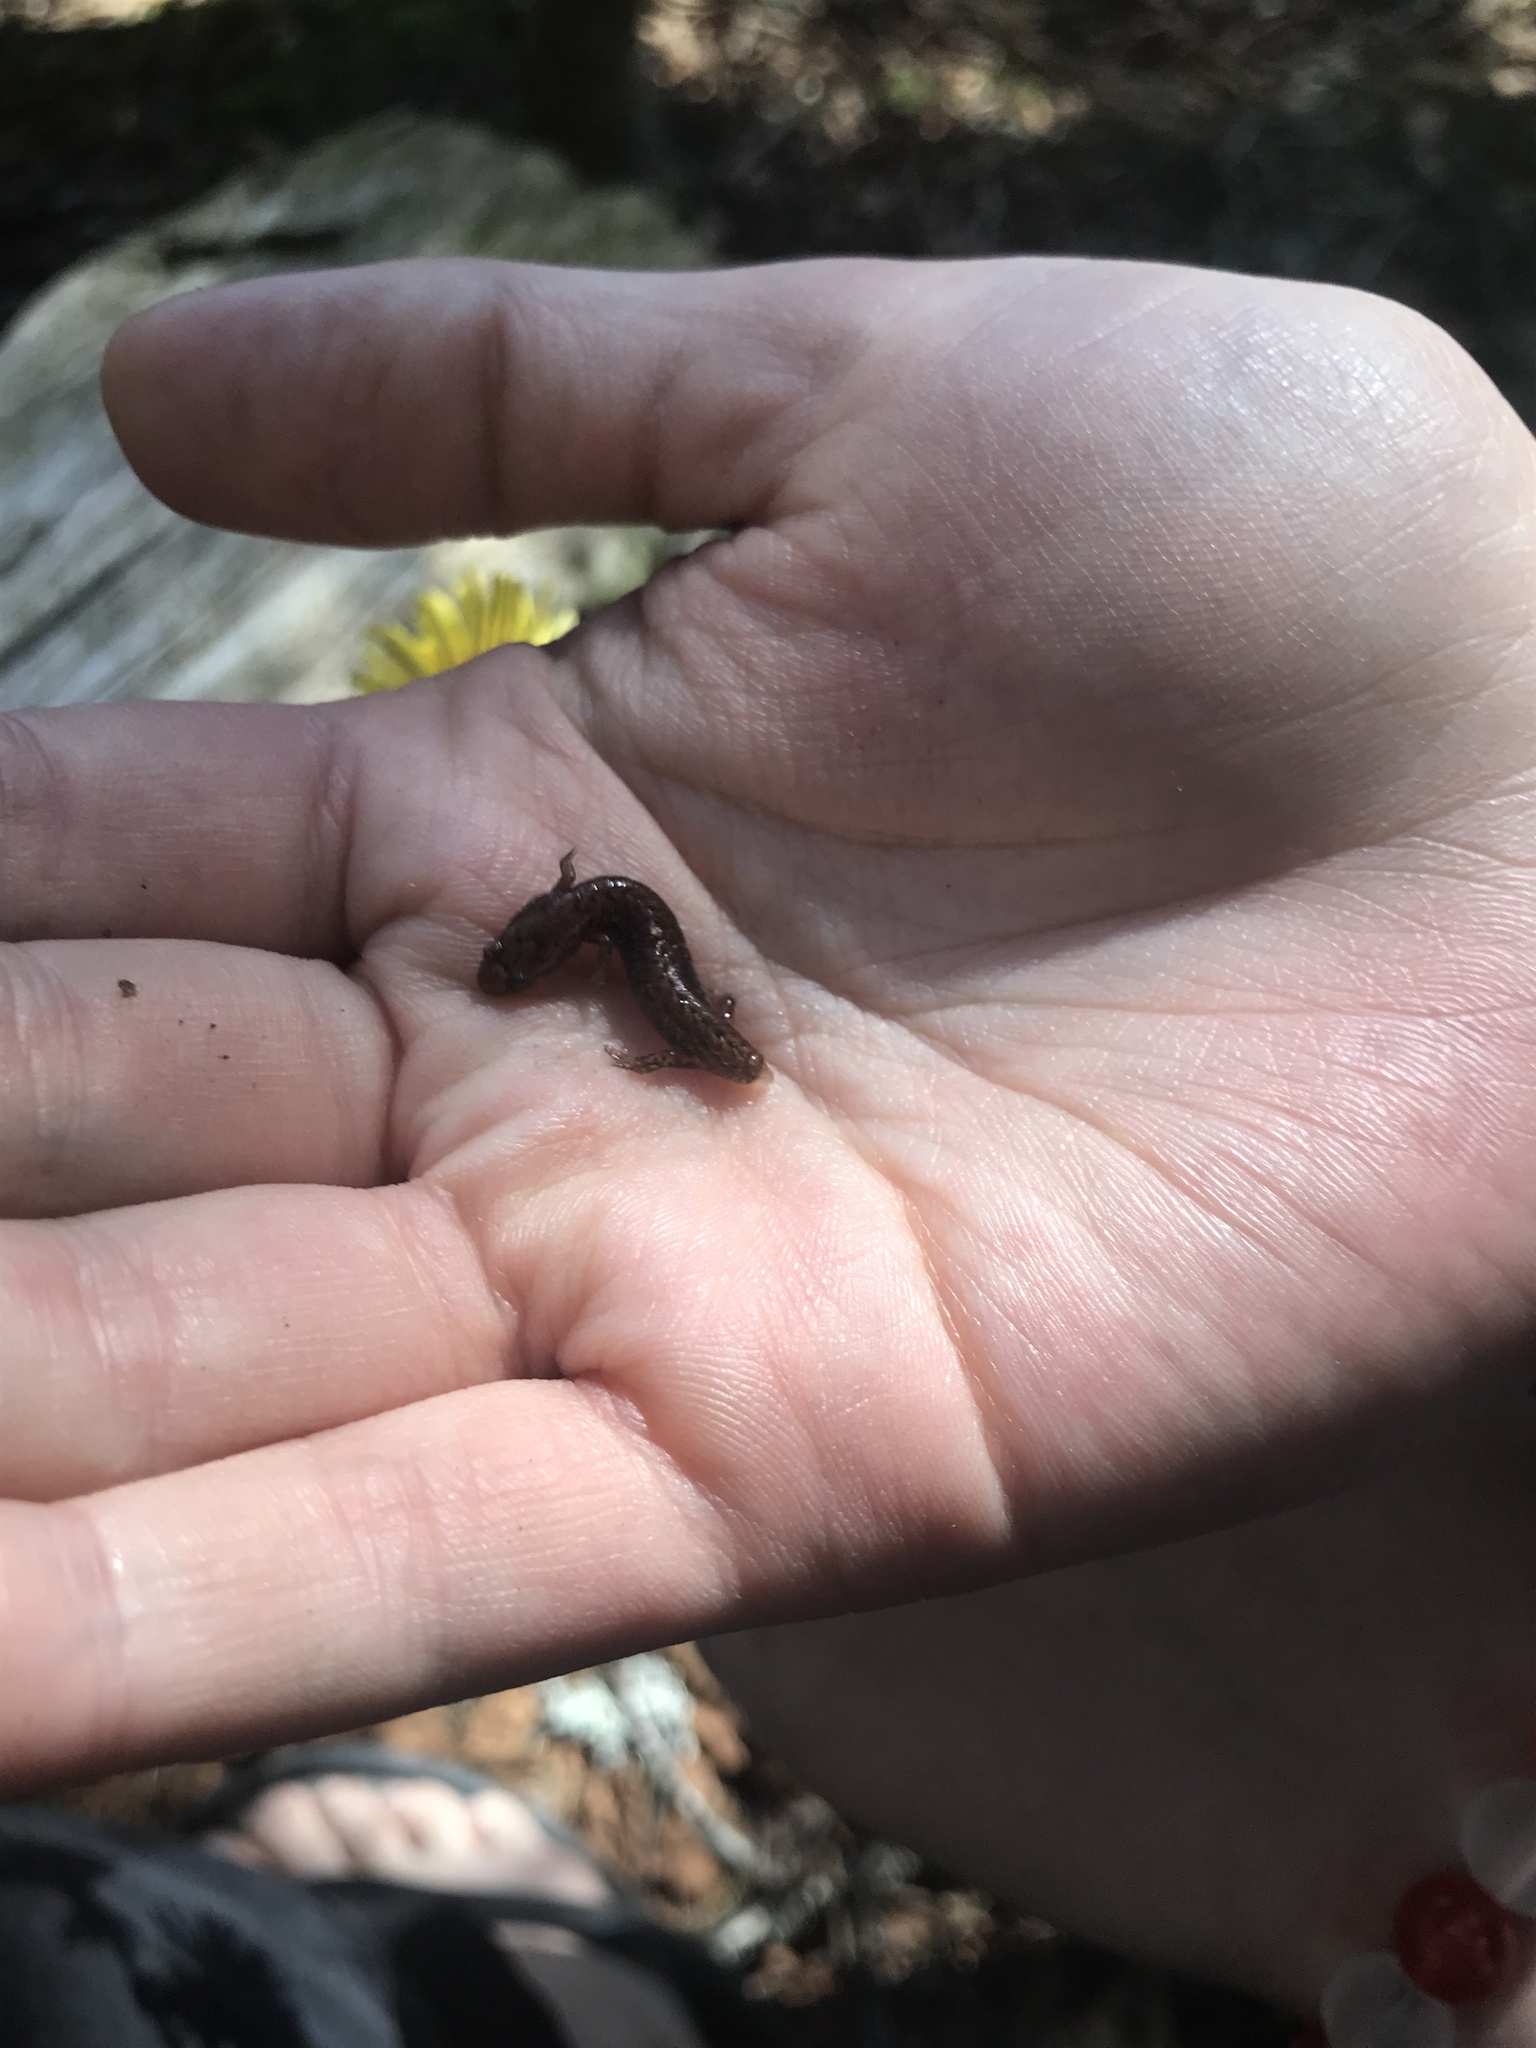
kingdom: Animalia
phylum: Chordata
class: Amphibia
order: Caudata
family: Plethodontidae
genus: Desmognathus
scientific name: Desmognathus wrighti
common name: Pygmy salamander
